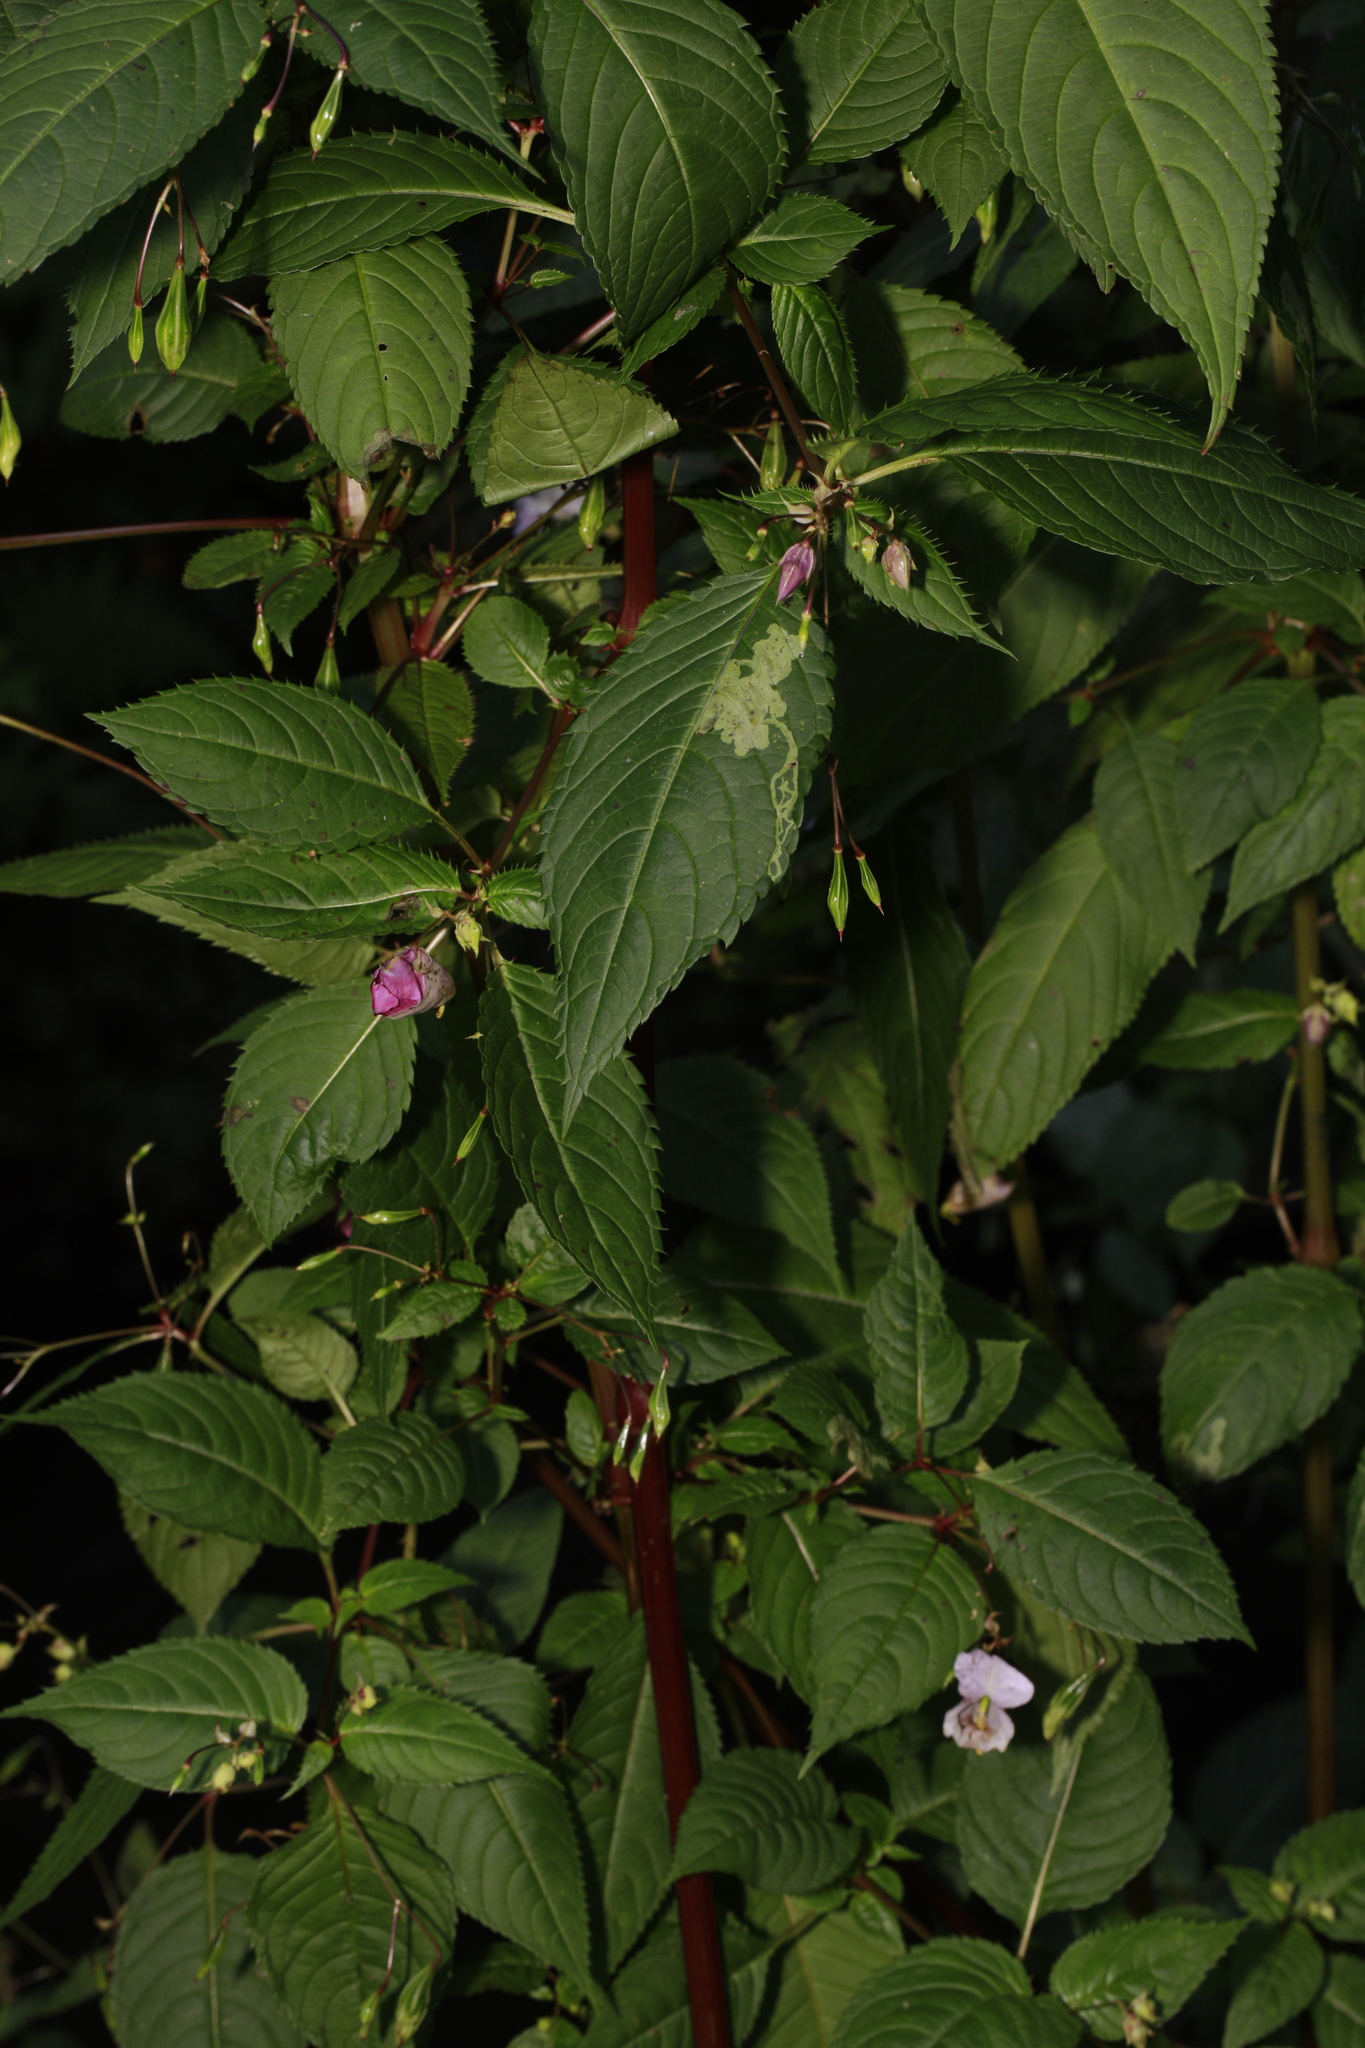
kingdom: Animalia
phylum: Arthropoda
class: Insecta
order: Diptera
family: Agromyzidae
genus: Phytoliriomyza
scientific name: Phytoliriomyza melampyga
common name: Jewelweed leaf-miner fly
